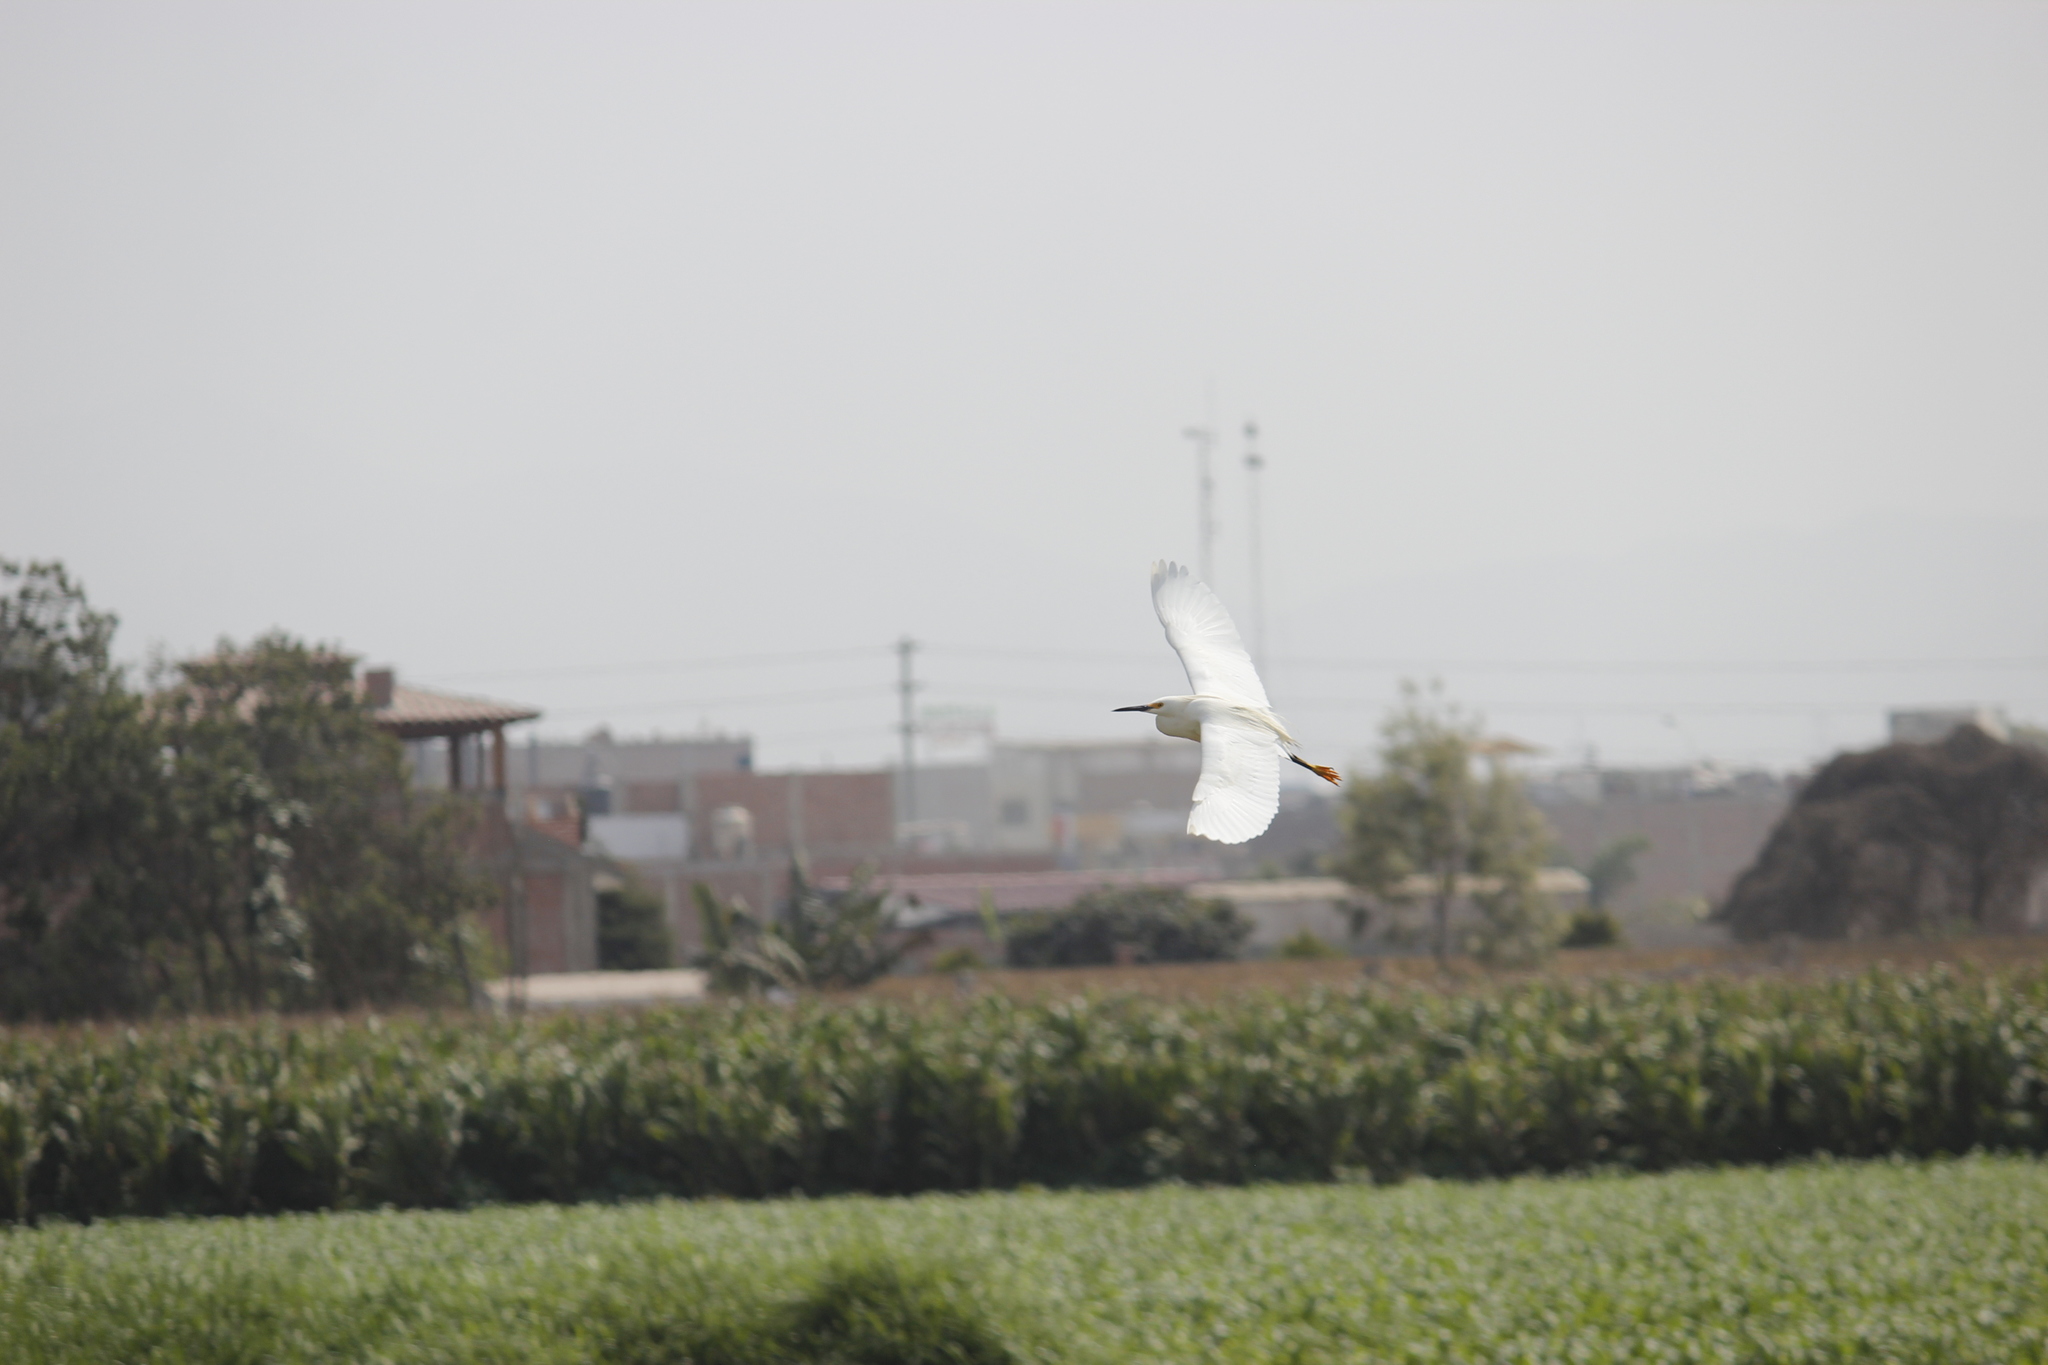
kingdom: Animalia
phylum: Chordata
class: Aves
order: Pelecaniformes
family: Ardeidae
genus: Egretta
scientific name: Egretta thula
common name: Snowy egret
